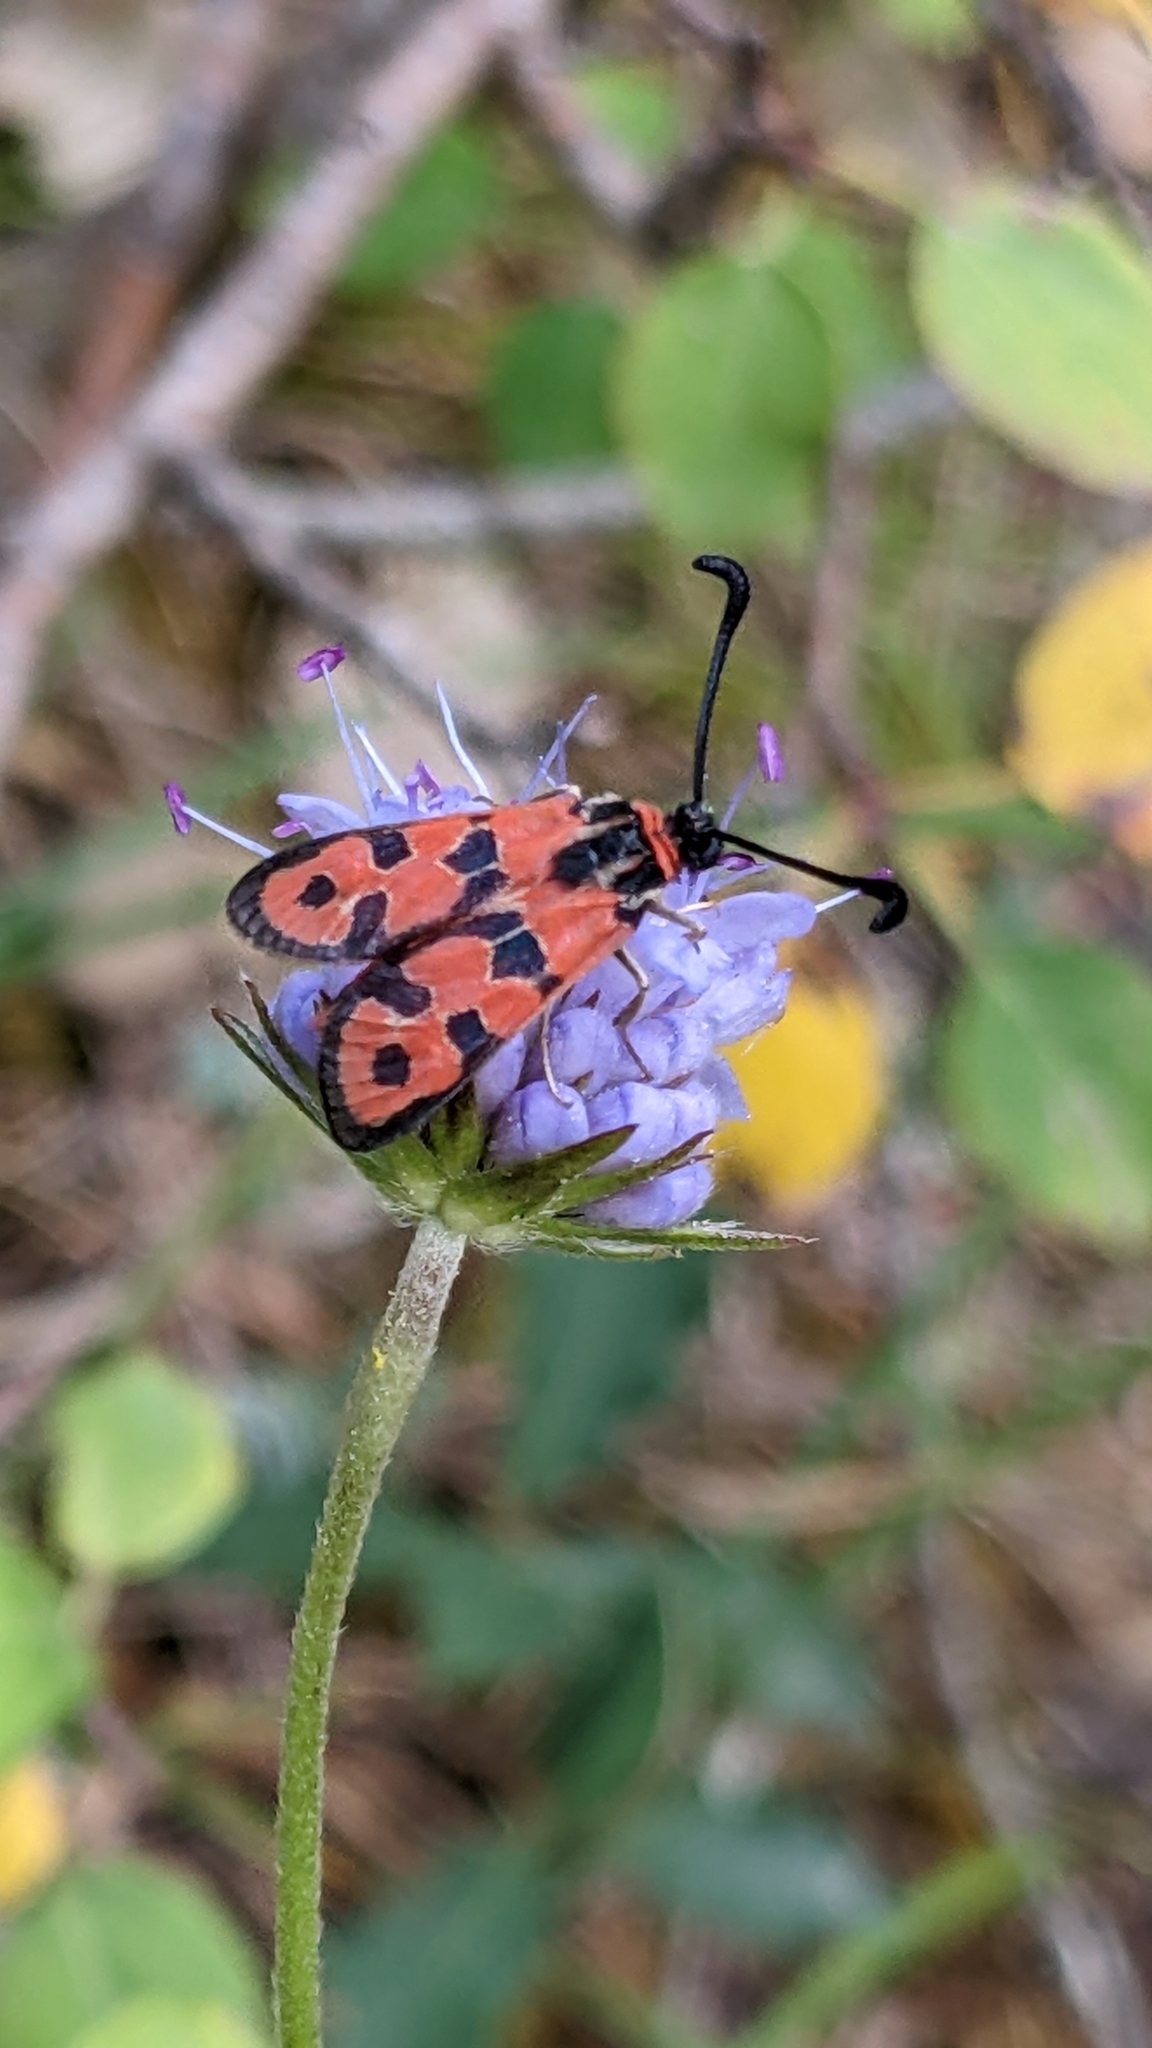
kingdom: Animalia
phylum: Arthropoda
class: Insecta
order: Lepidoptera
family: Zygaenidae
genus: Zygaena
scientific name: Zygaena fausta
